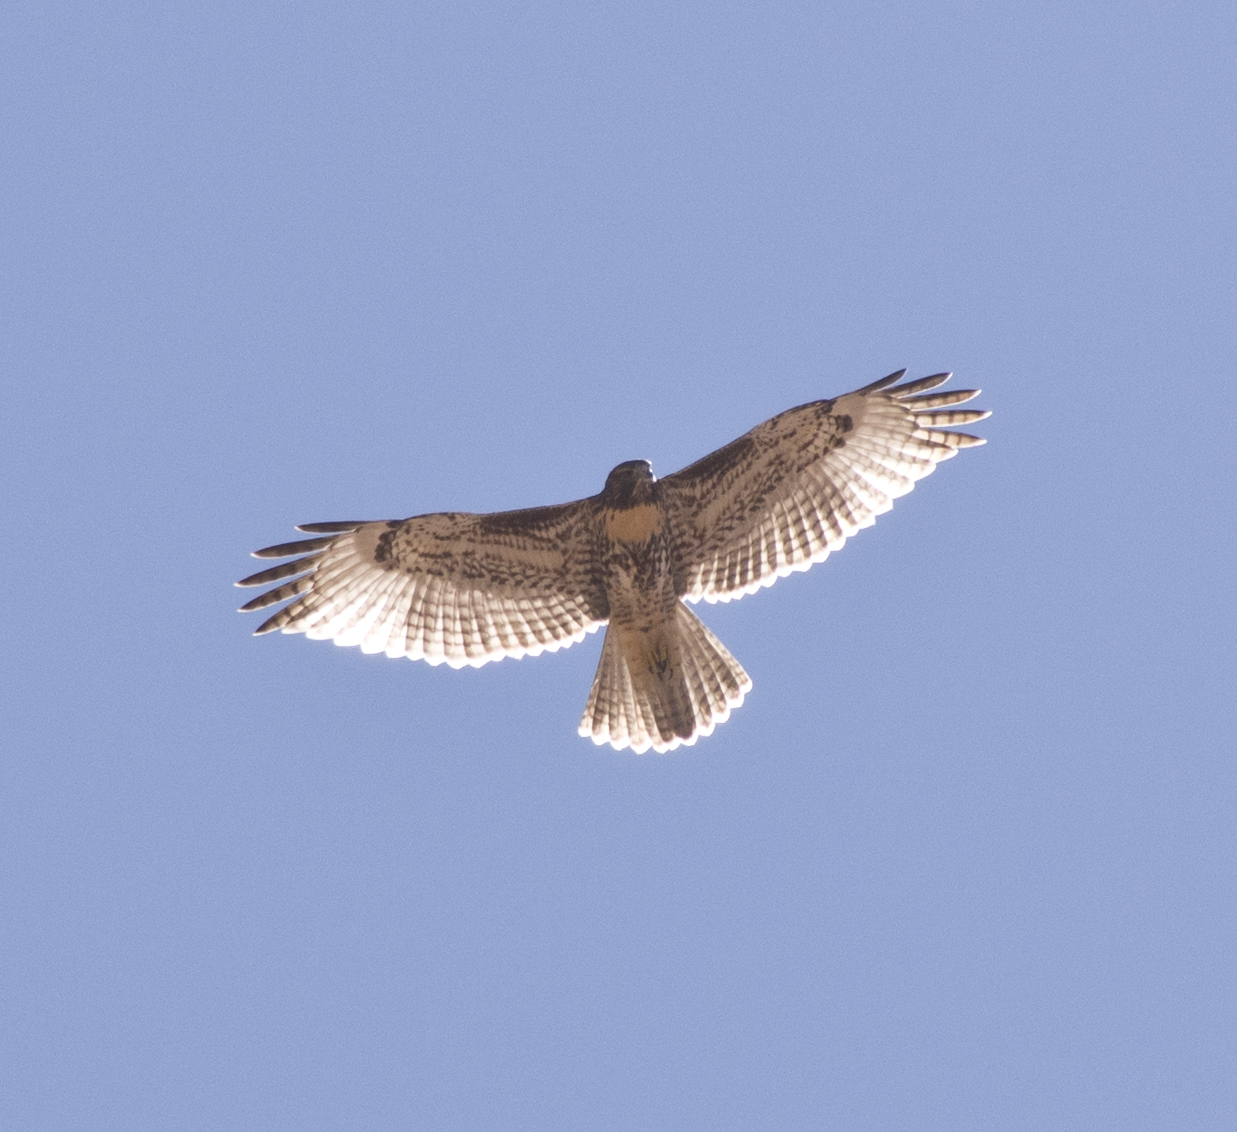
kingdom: Animalia
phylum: Chordata
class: Aves
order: Accipitriformes
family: Accipitridae
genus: Buteo
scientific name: Buteo jamaicensis
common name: Red-tailed hawk
